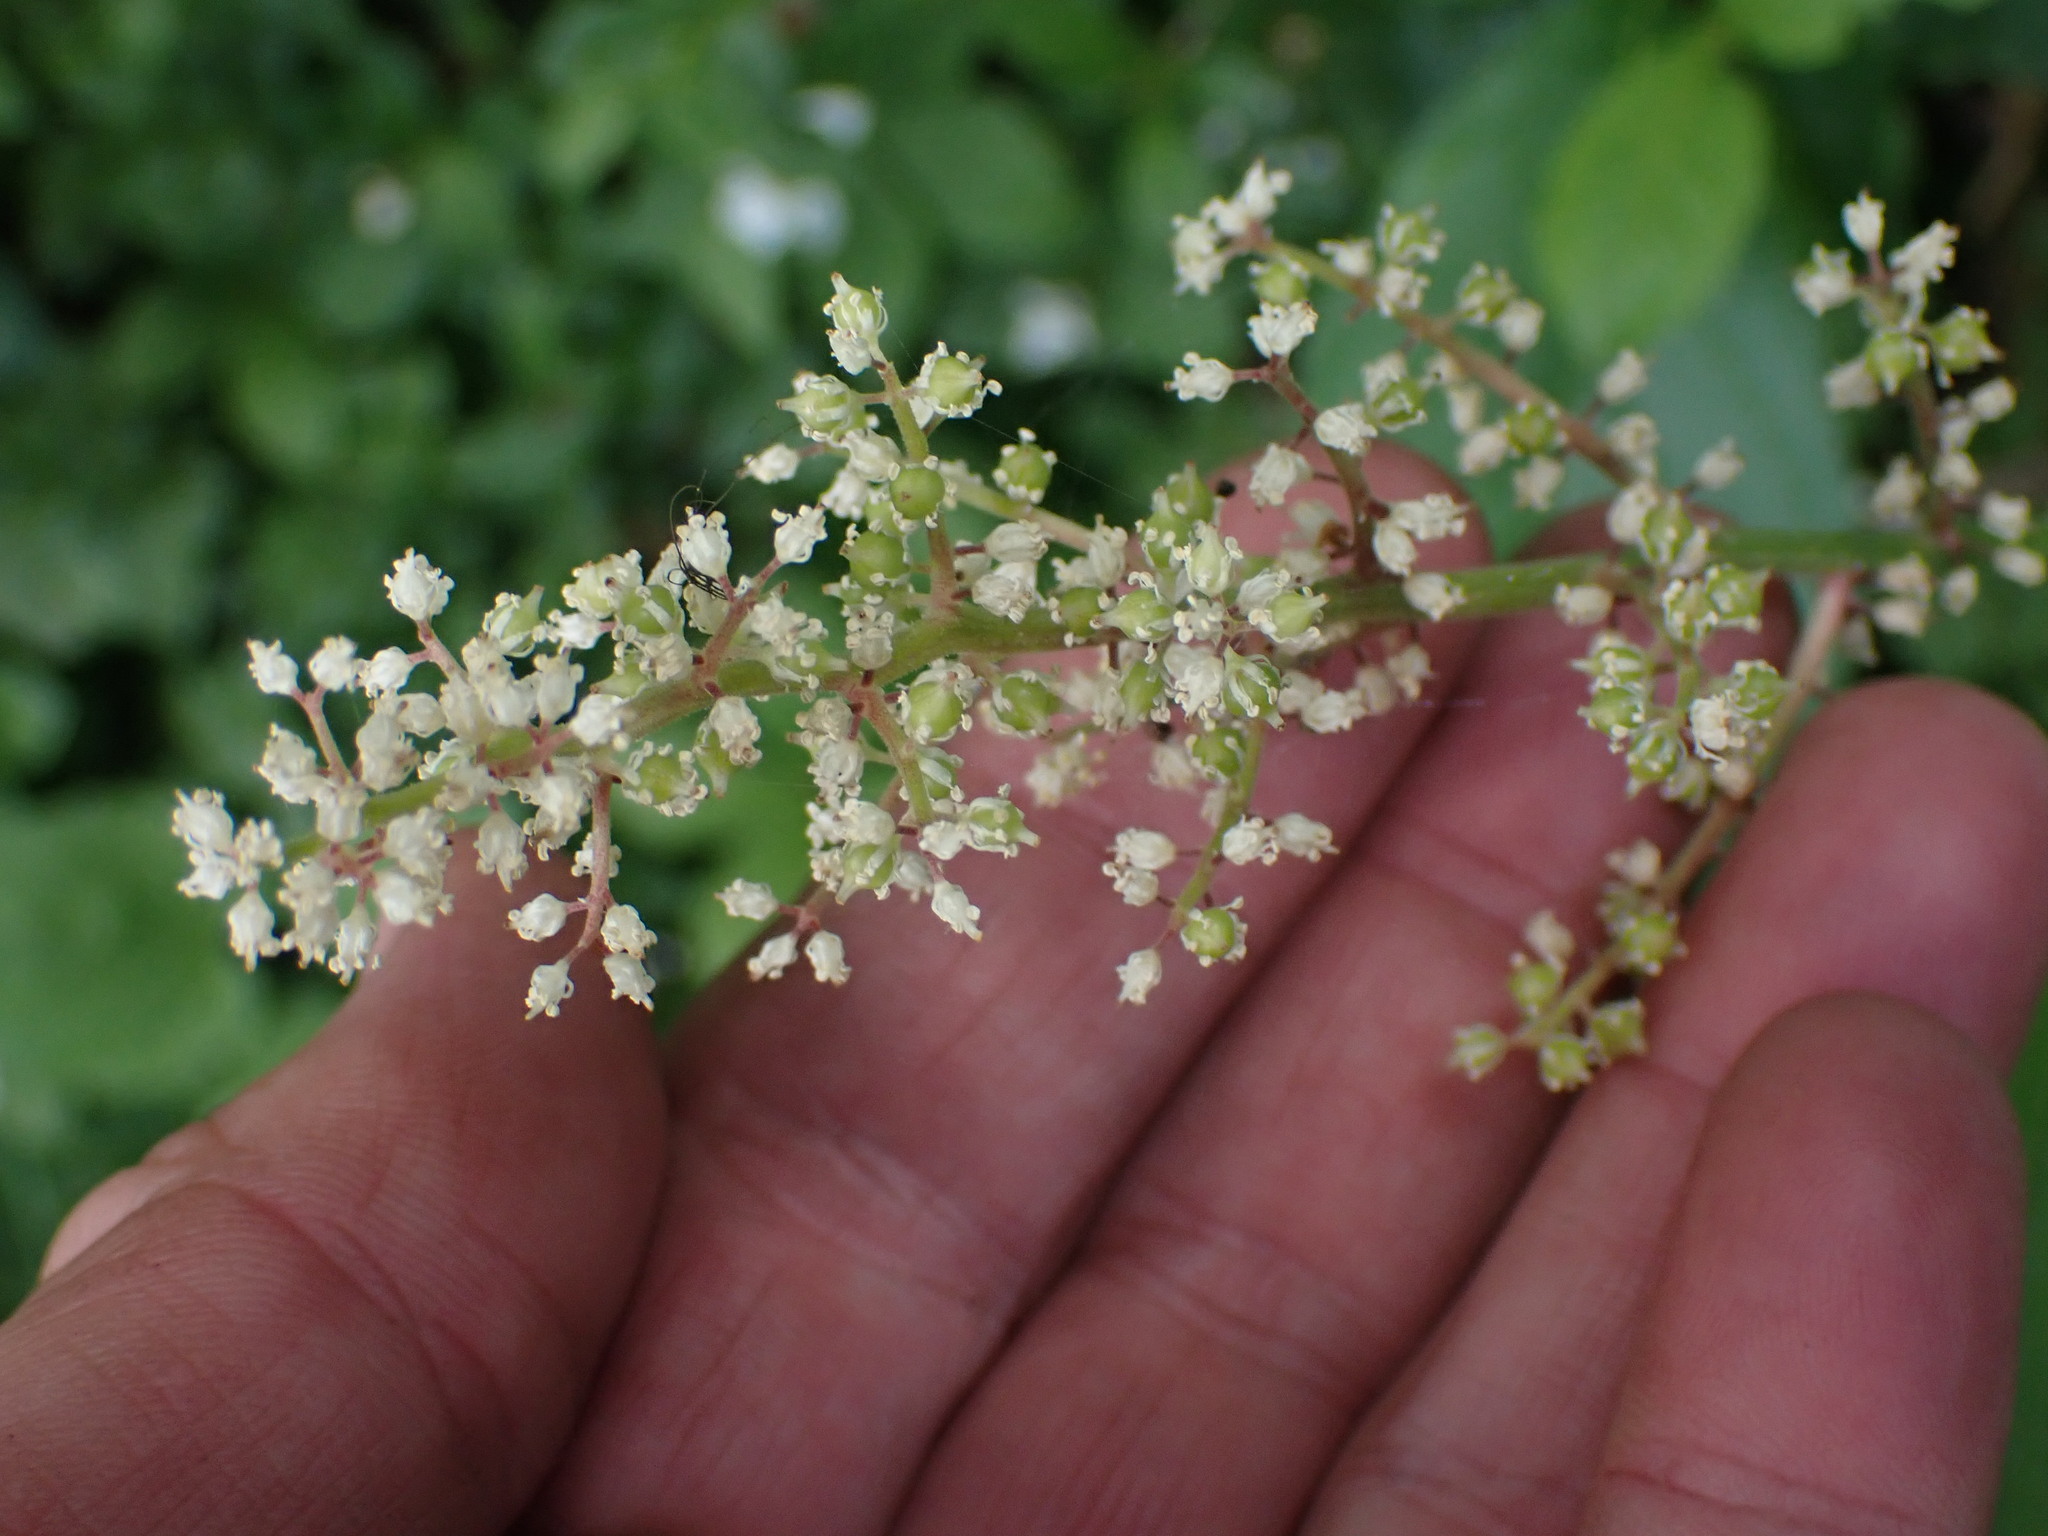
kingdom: Plantae
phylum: Tracheophyta
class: Liliopsida
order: Asparagales
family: Asparagaceae
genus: Maianthemum
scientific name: Maianthemum racemosum
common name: False spikenard
